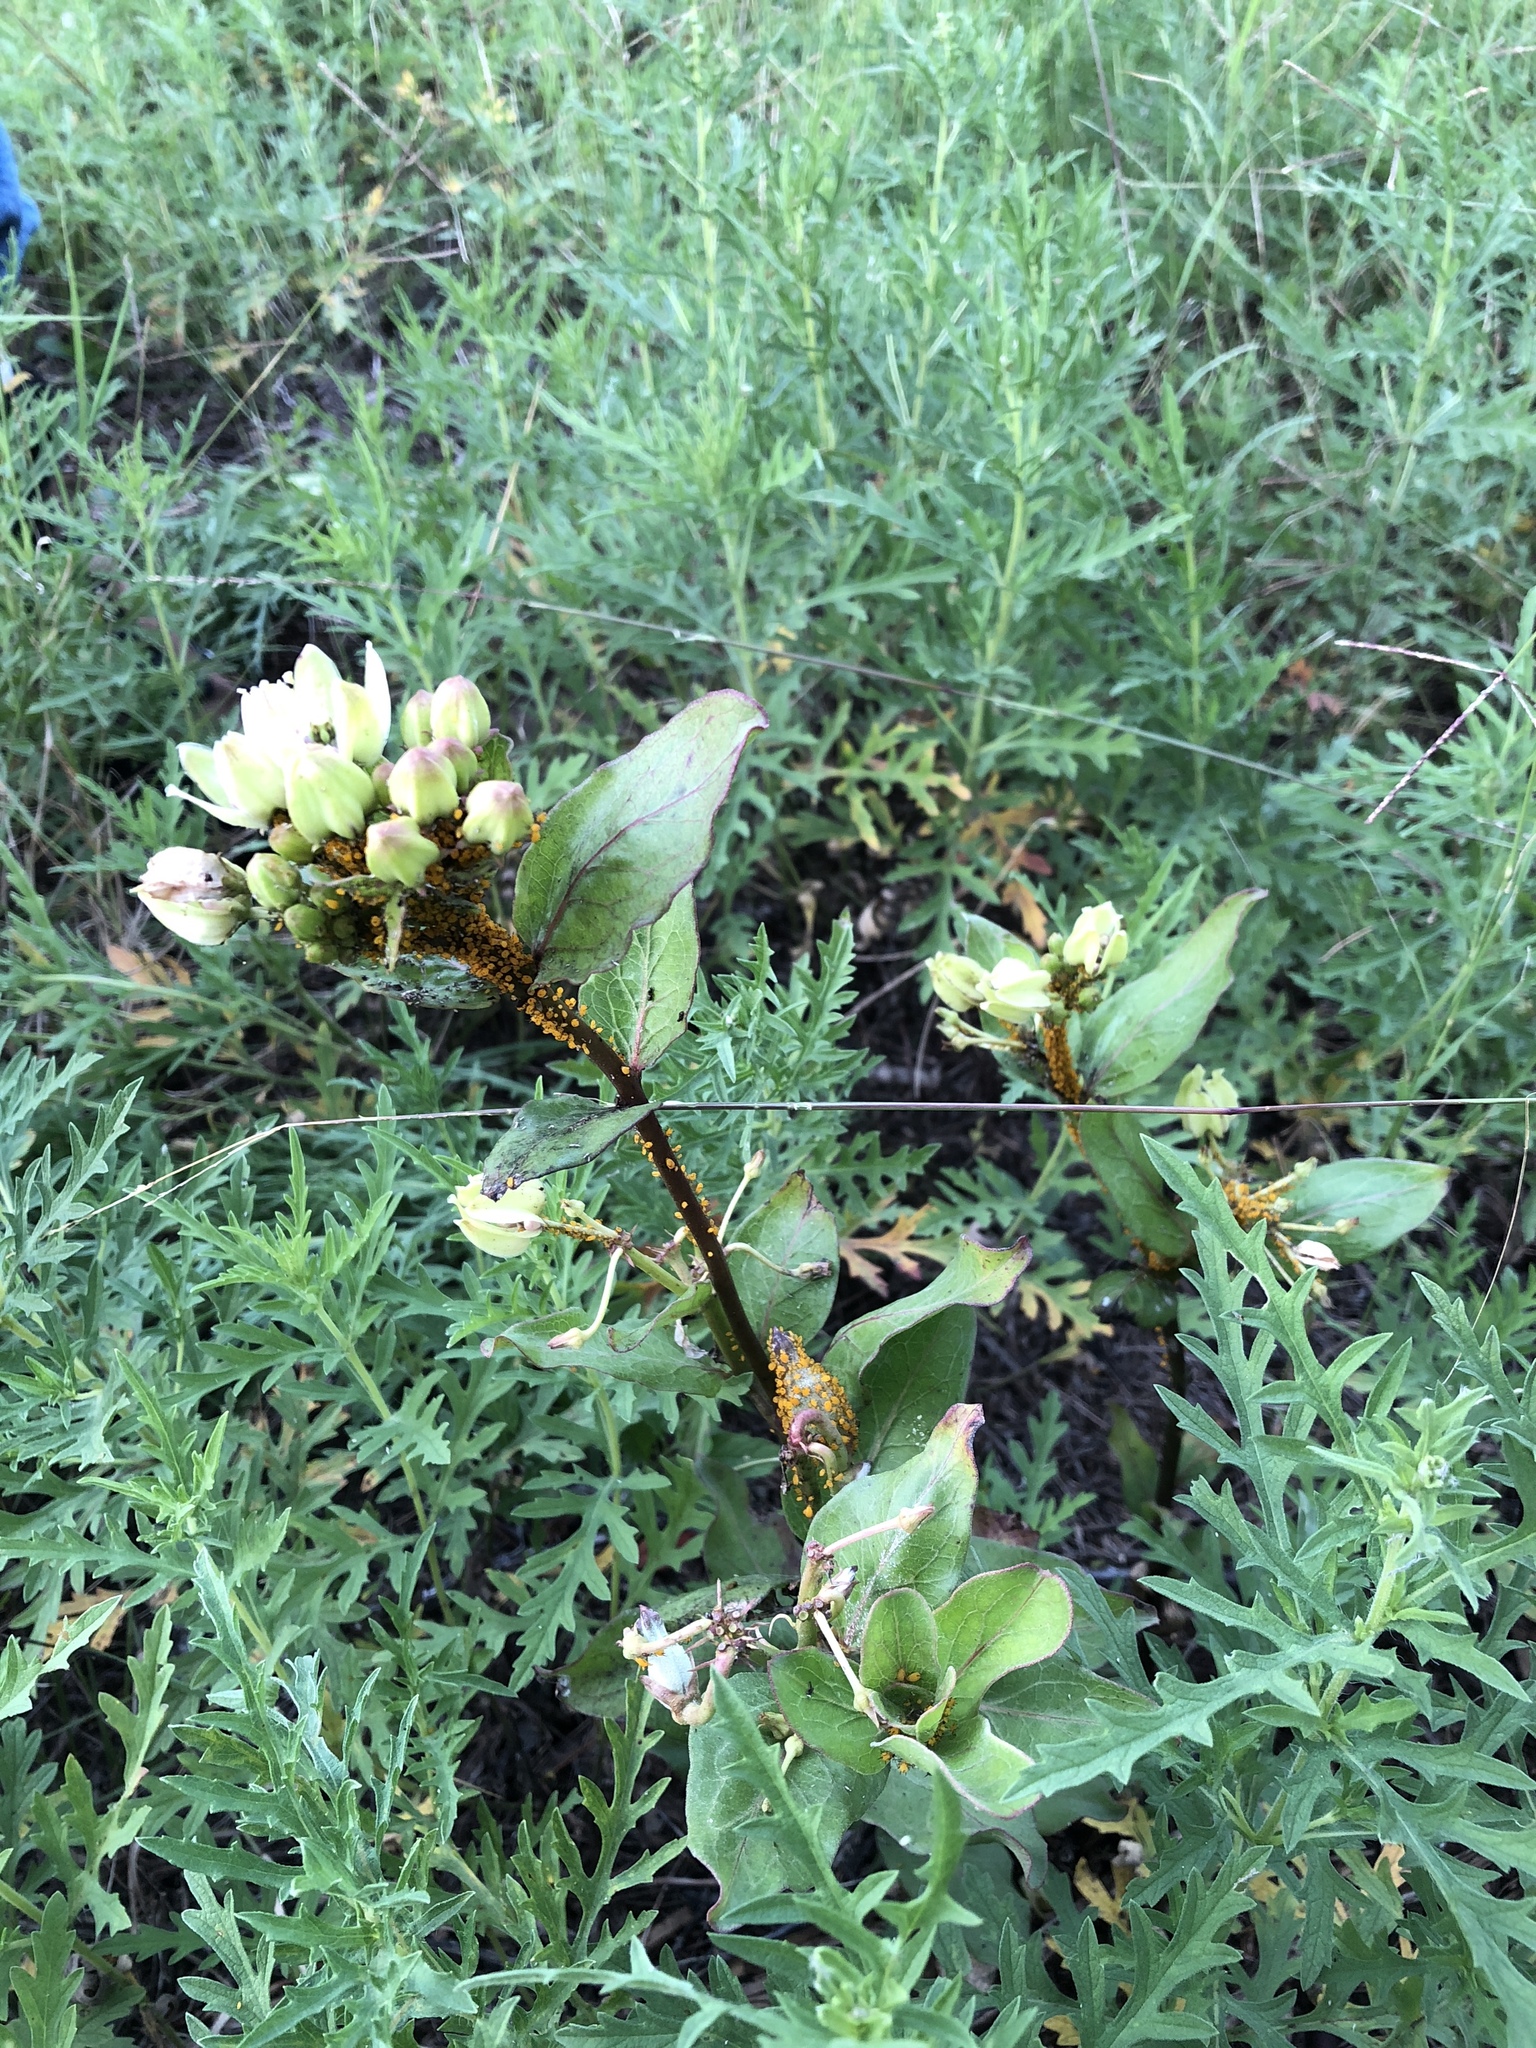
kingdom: Plantae
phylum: Tracheophyta
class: Magnoliopsida
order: Gentianales
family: Apocynaceae
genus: Asclepias
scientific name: Asclepias viridis
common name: Antelope-horns
